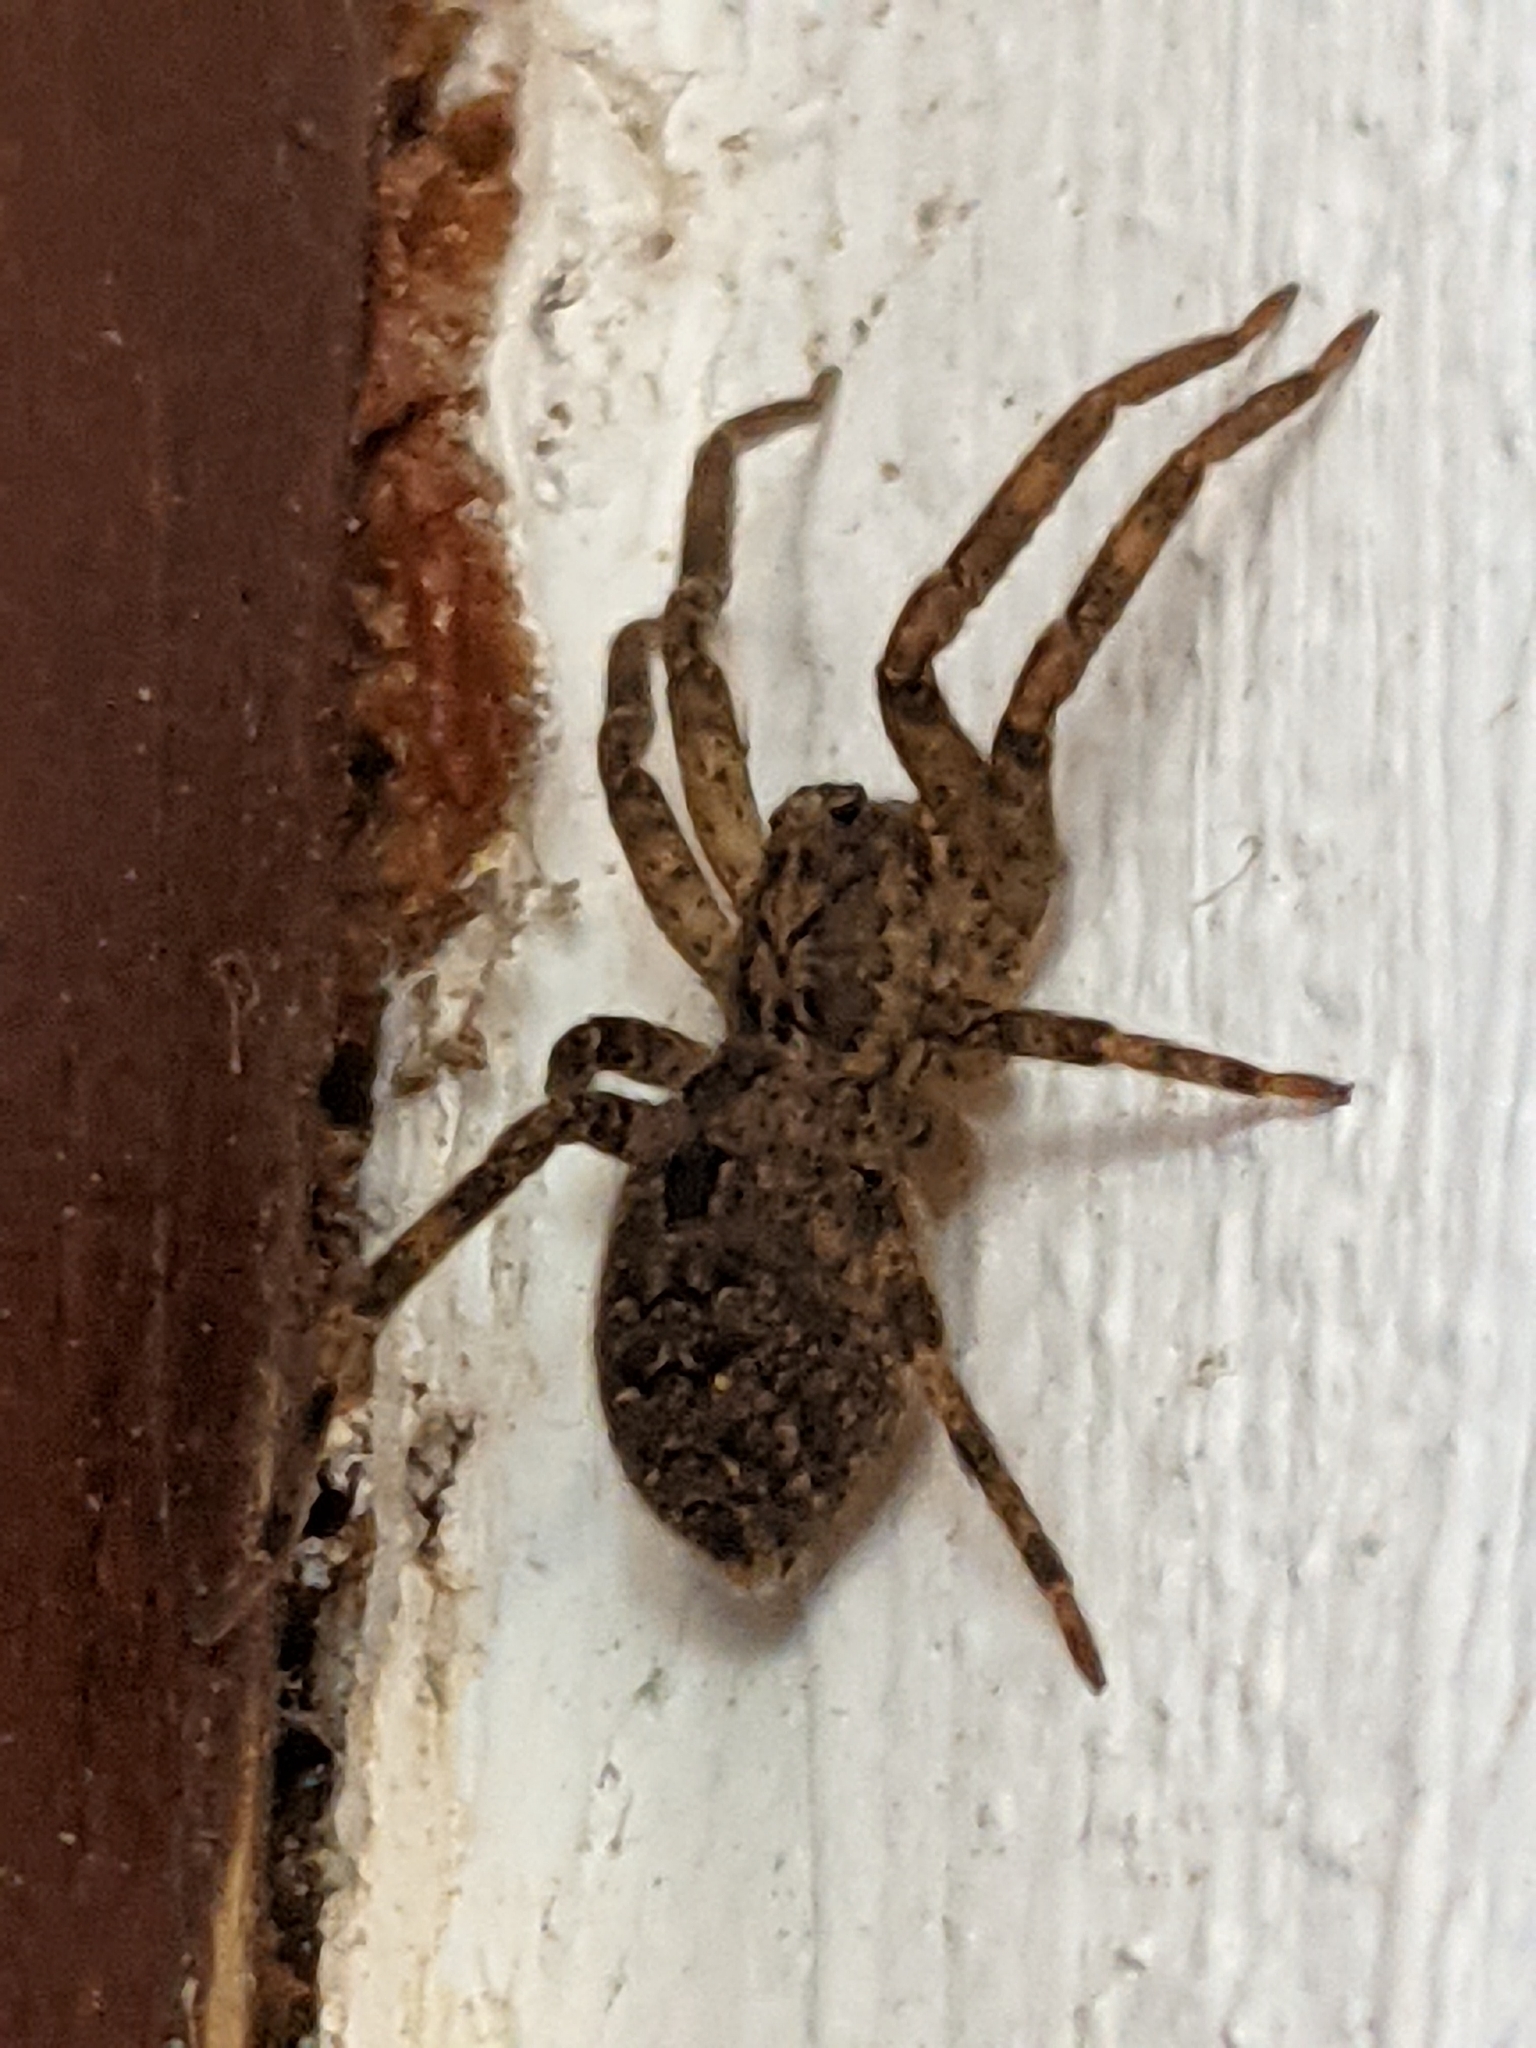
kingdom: Animalia
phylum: Arthropoda
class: Arachnida
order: Araneae
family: Zoropsidae
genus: Zoropsis
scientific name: Zoropsis spinimana
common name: Zoropsid spider
